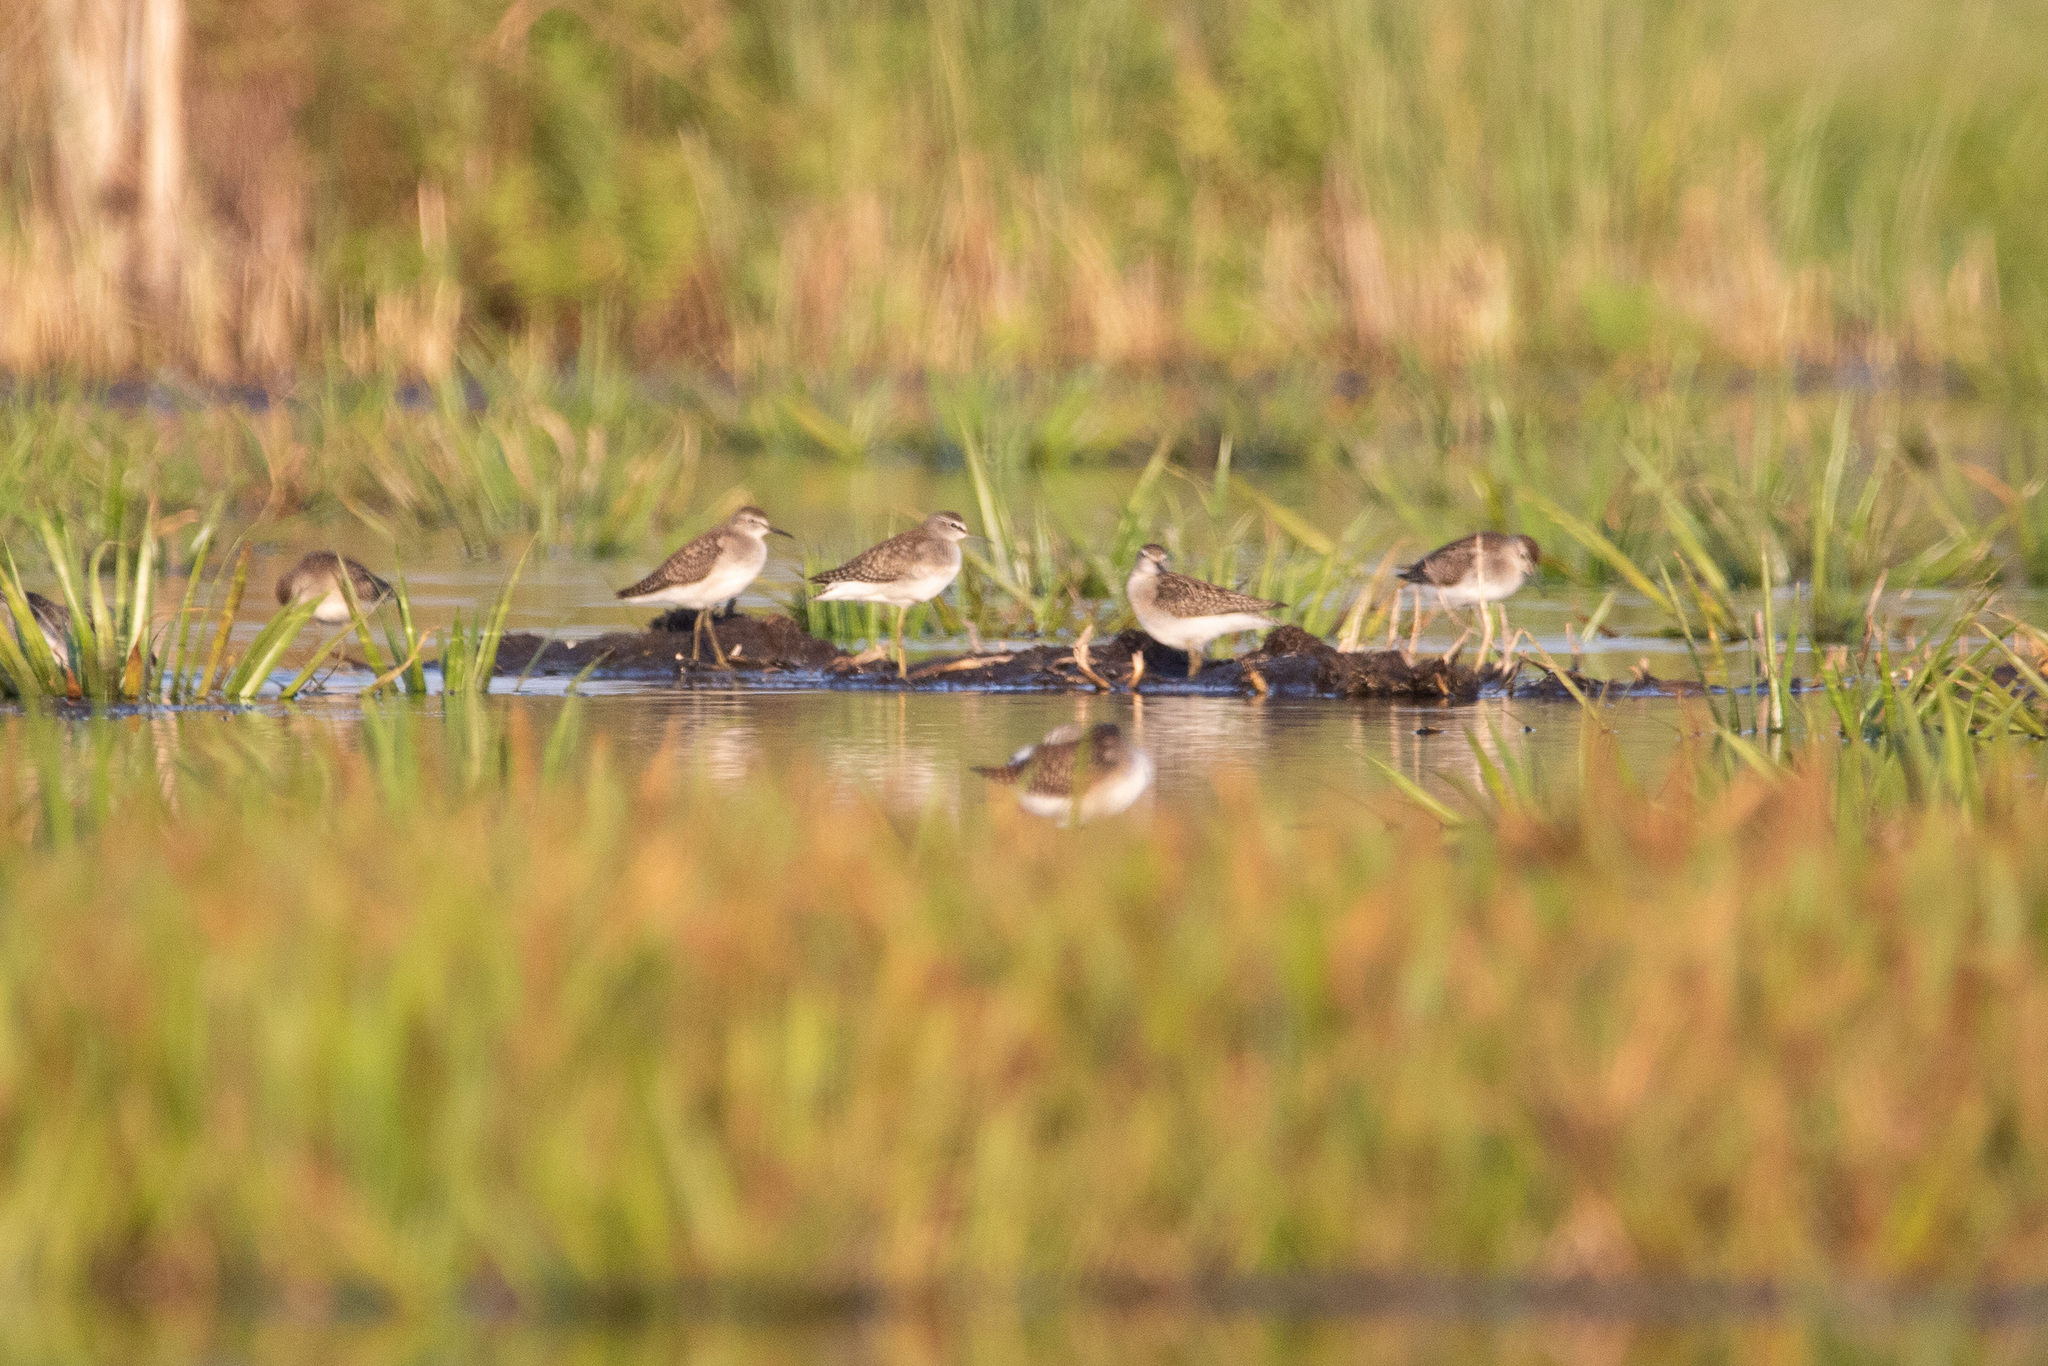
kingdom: Animalia
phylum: Chordata
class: Aves
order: Charadriiformes
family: Scolopacidae
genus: Tringa
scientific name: Tringa glareola
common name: Wood sandpiper
